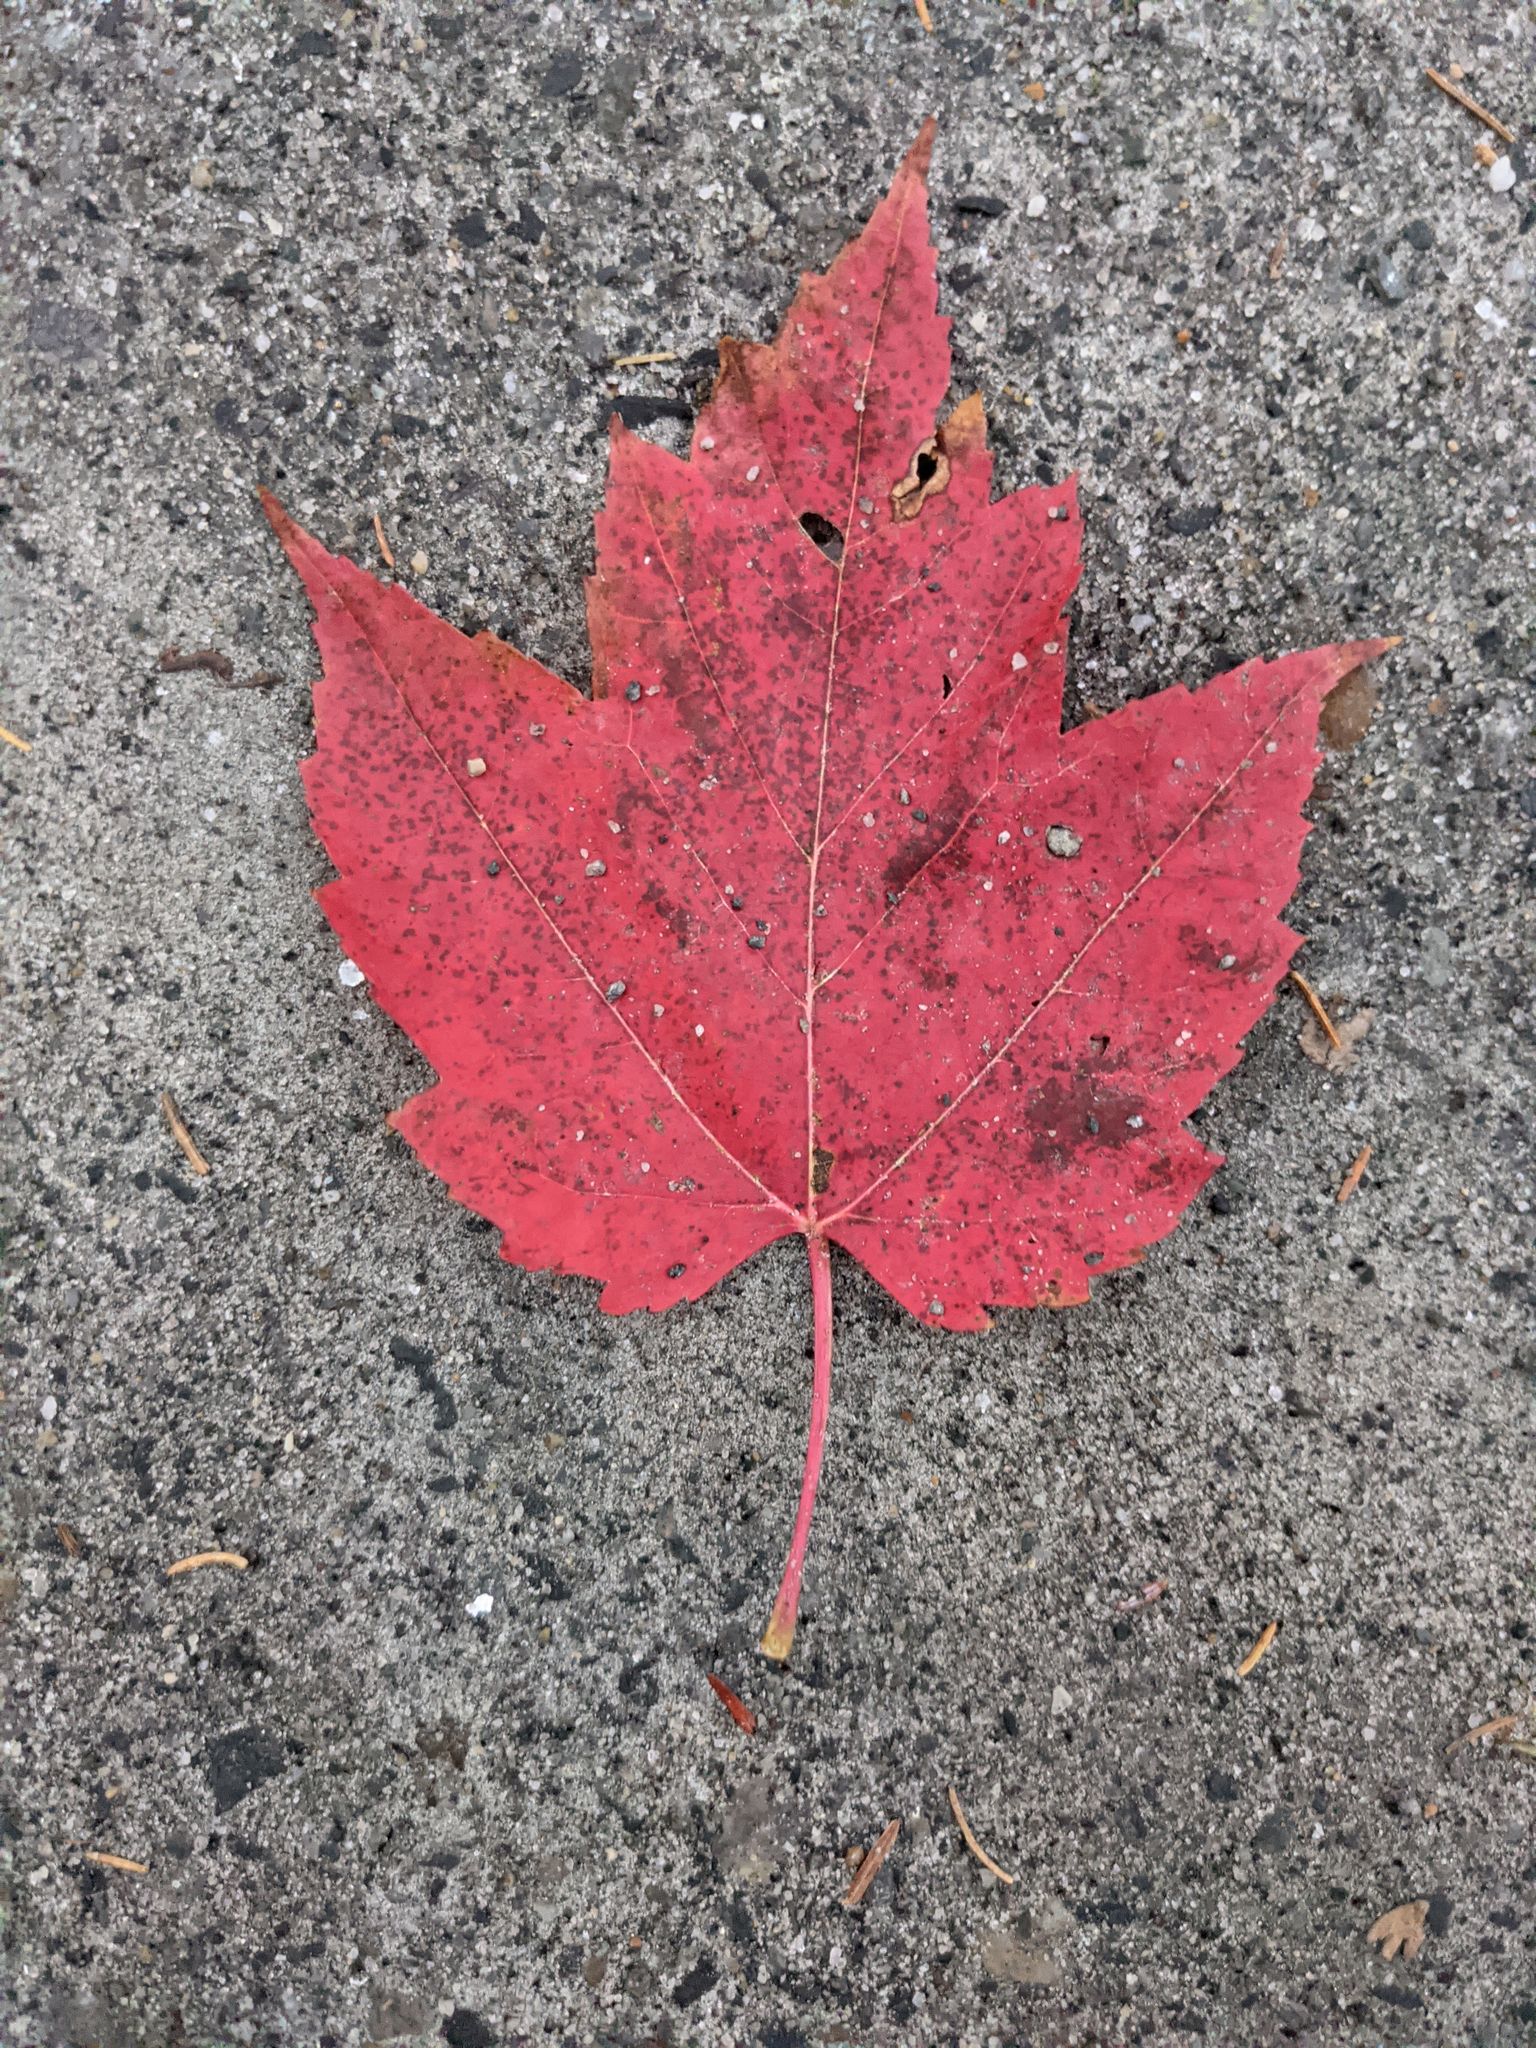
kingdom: Plantae
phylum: Tracheophyta
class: Magnoliopsida
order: Sapindales
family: Sapindaceae
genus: Acer
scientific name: Acer rubrum
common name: Red maple
